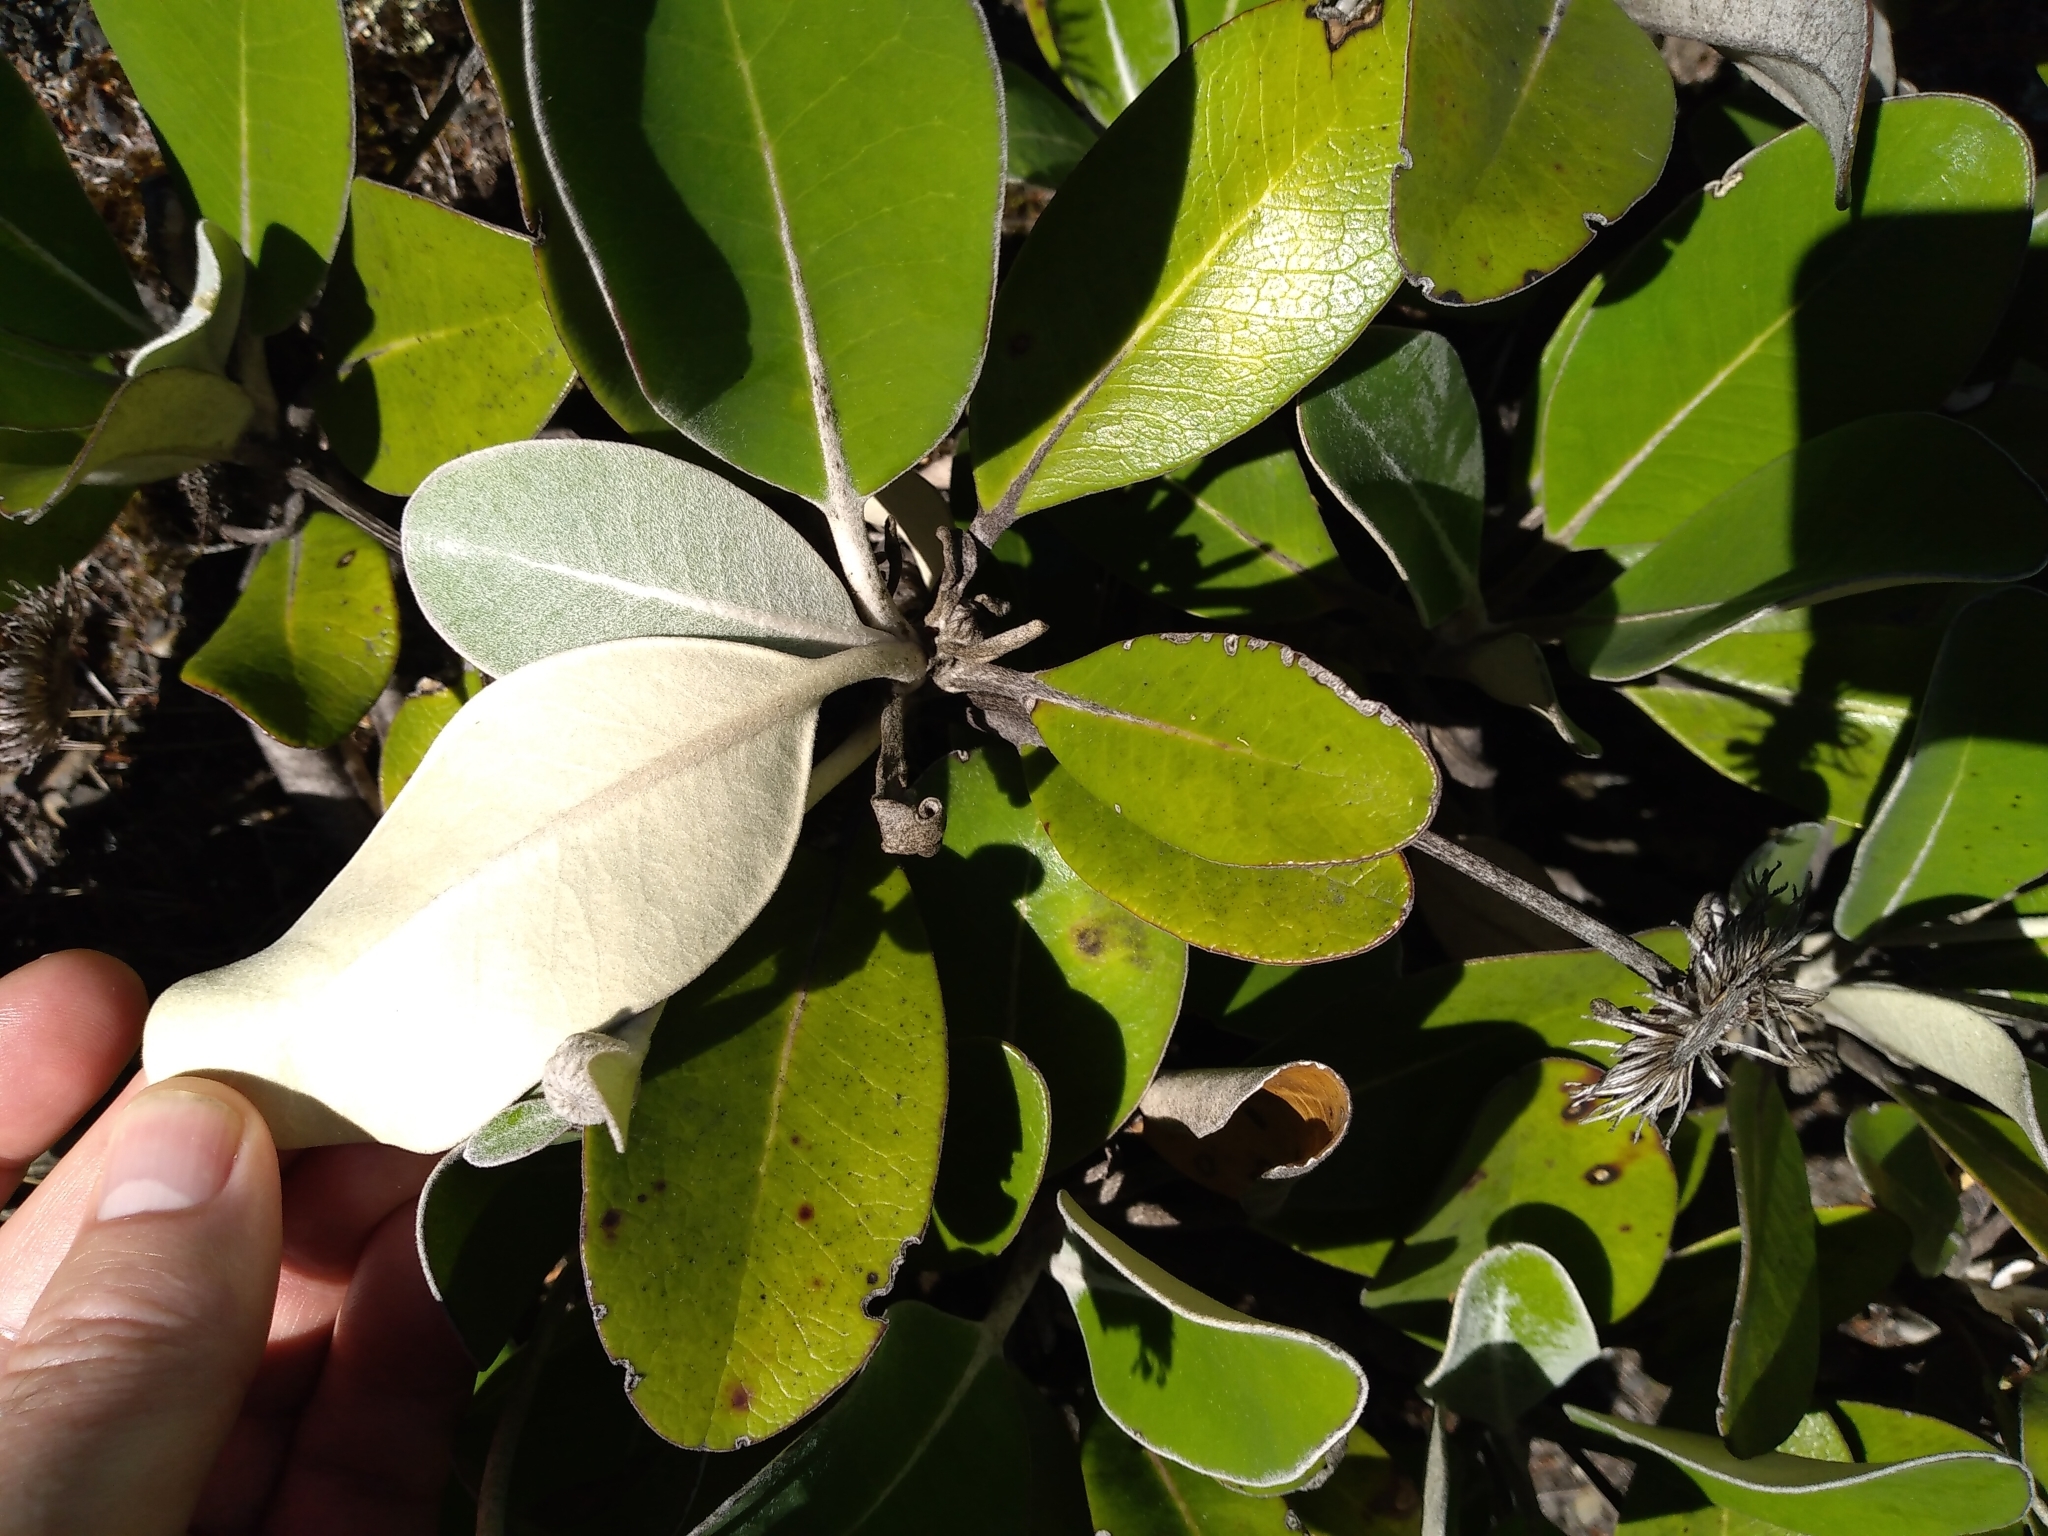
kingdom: Plantae
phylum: Tracheophyta
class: Magnoliopsida
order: Asterales
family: Asteraceae
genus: Pachystegia
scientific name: Pachystegia insignis
